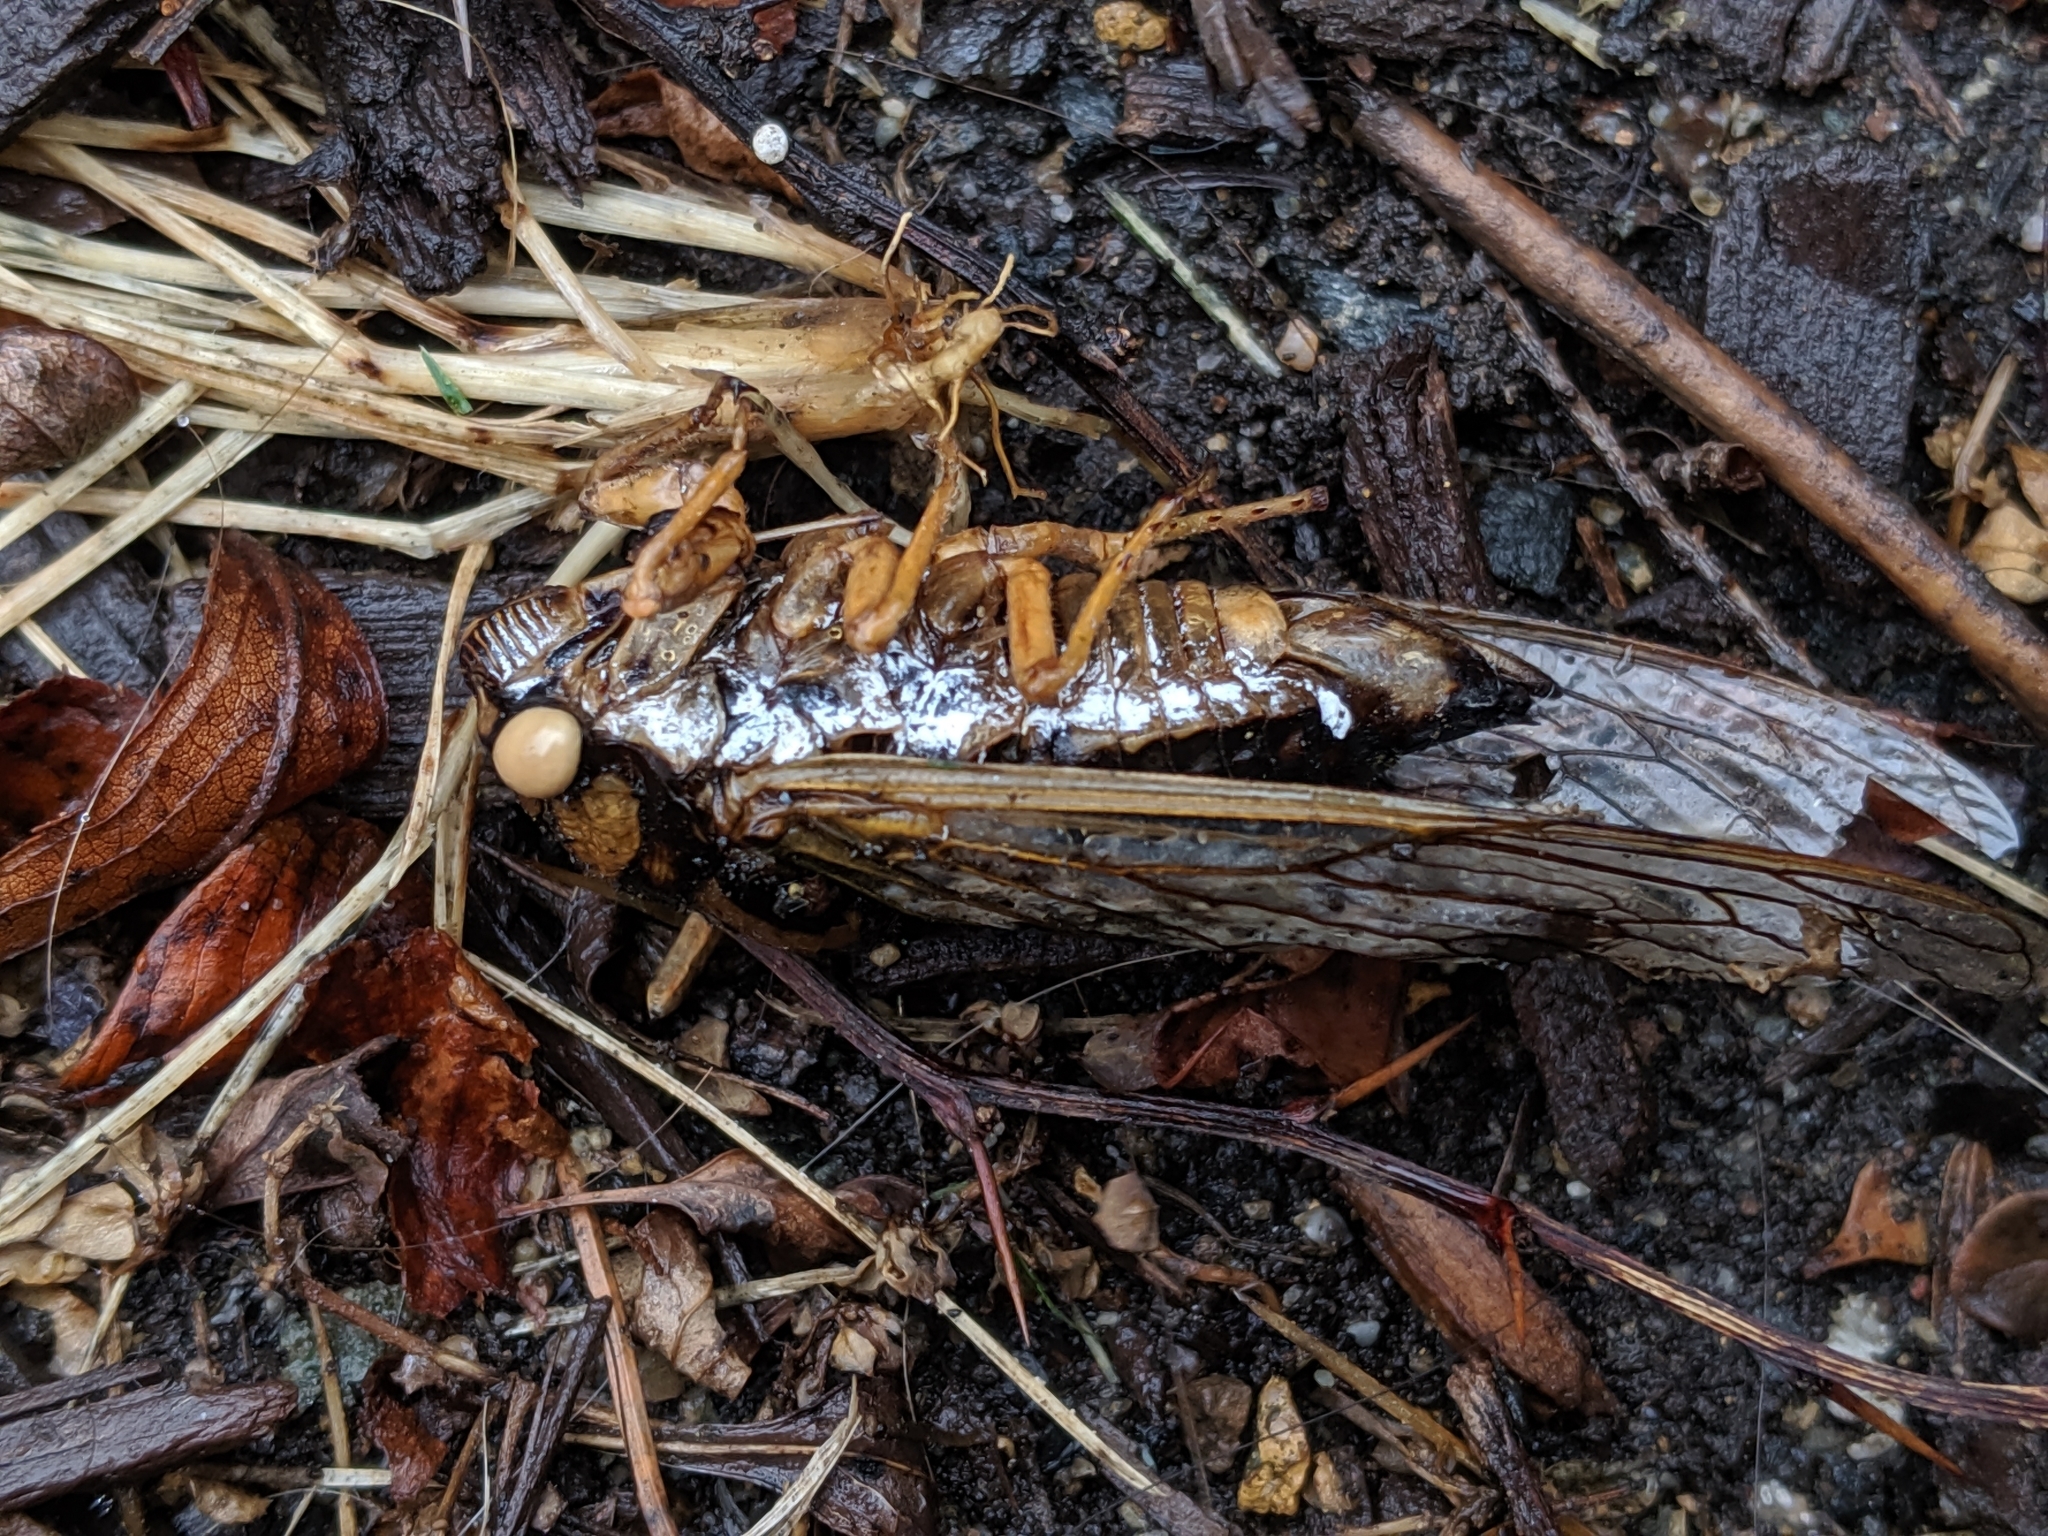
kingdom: Fungi
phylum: Ascomycota
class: Sordariomycetes
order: Hypocreales
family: Cordycipitaceae
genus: Beauveria
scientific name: Beauveria bassiana
